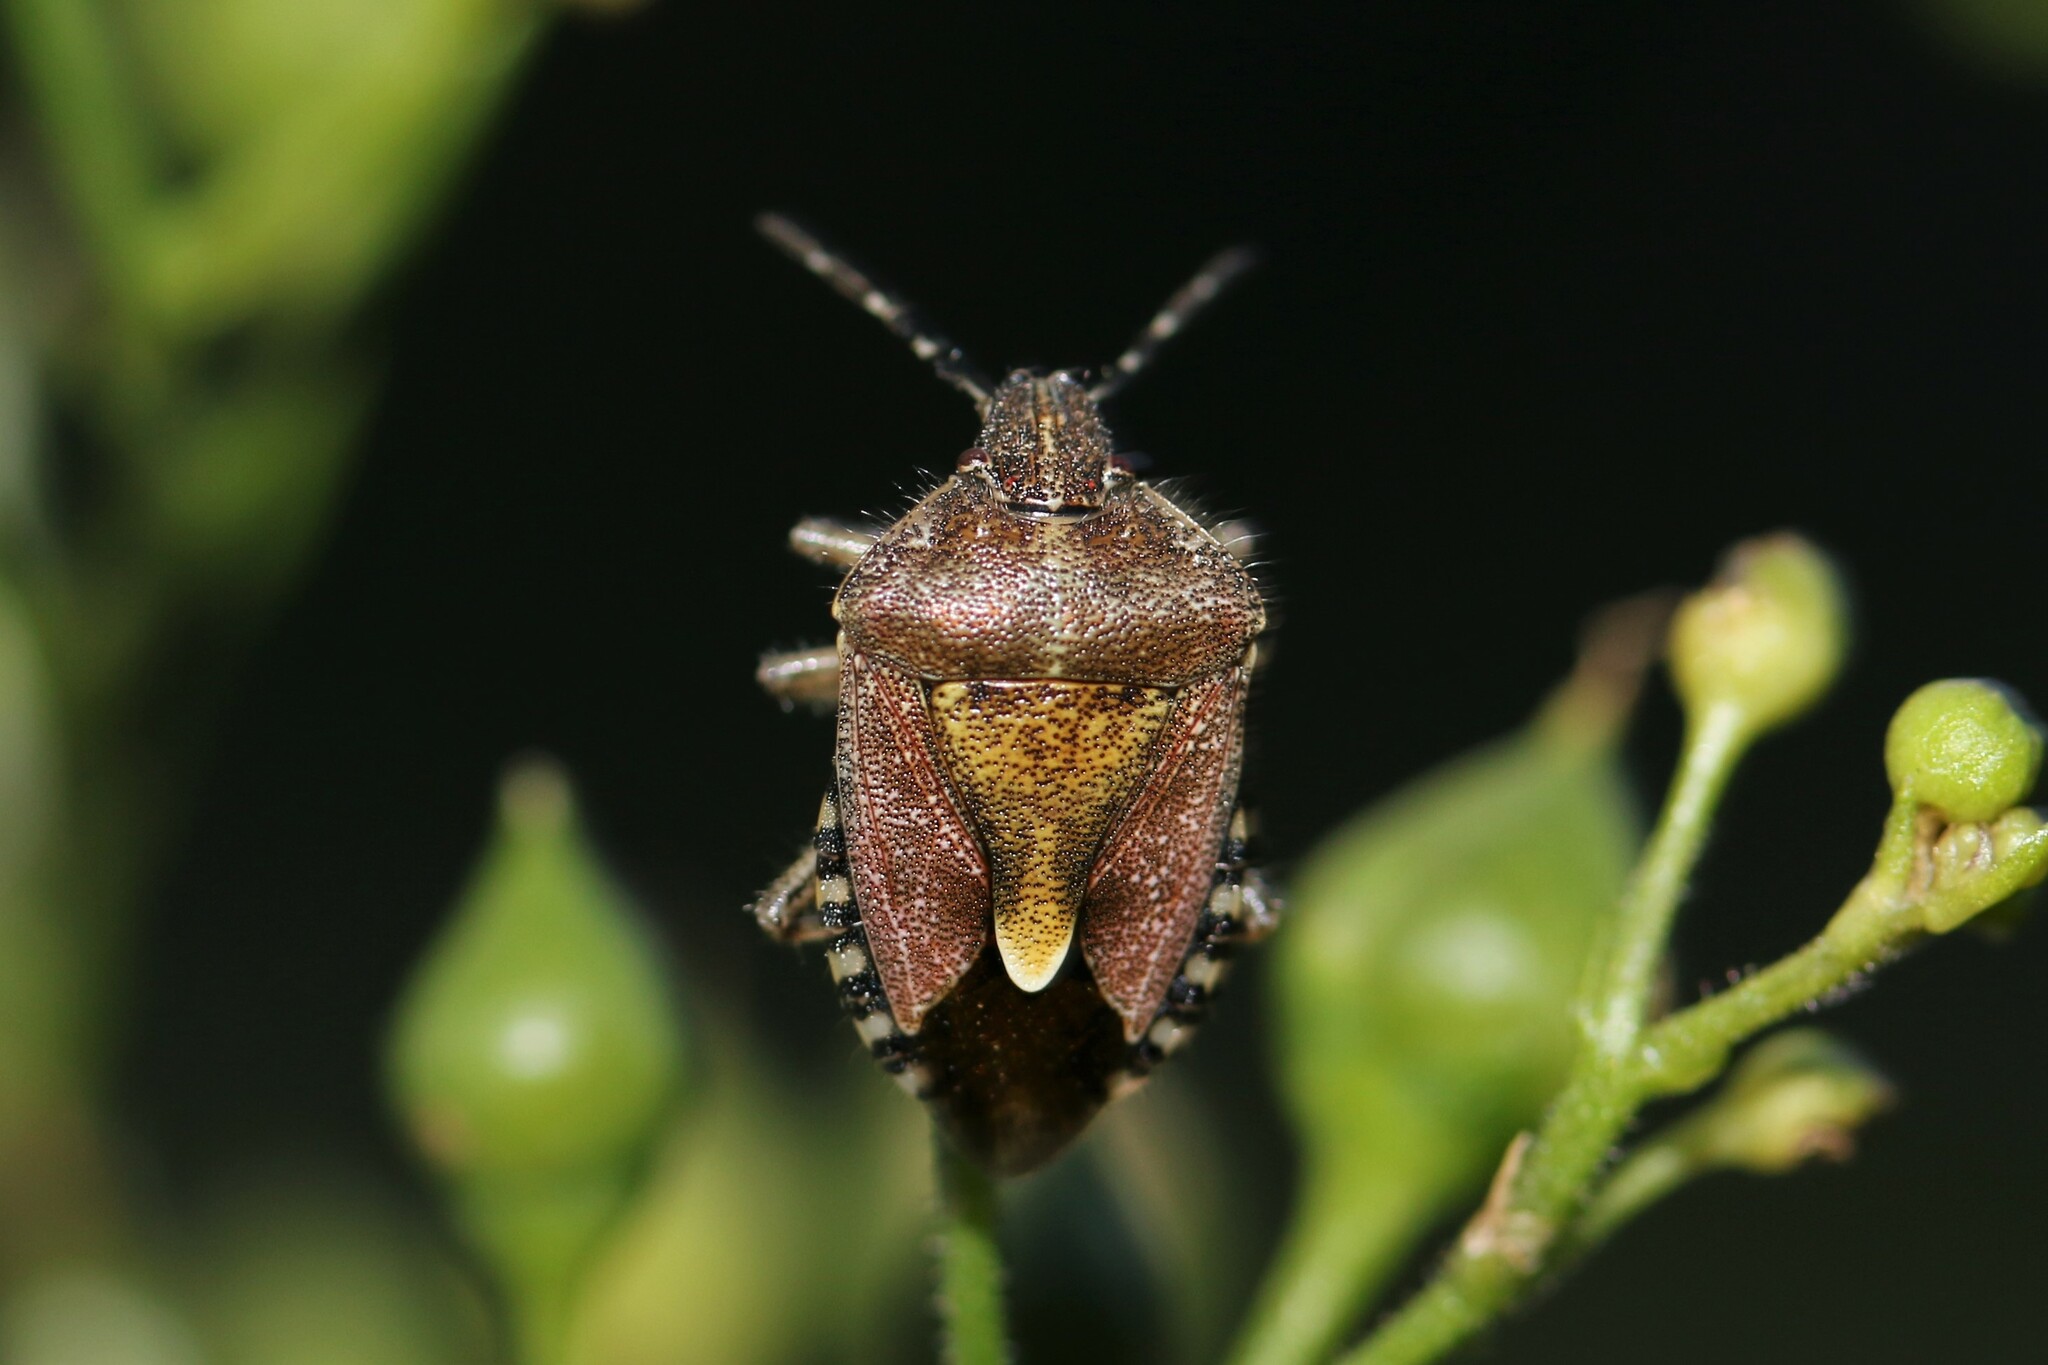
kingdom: Animalia
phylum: Arthropoda
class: Insecta
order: Hemiptera
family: Pentatomidae
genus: Dolycoris
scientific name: Dolycoris baccarum
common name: Sloe bug
